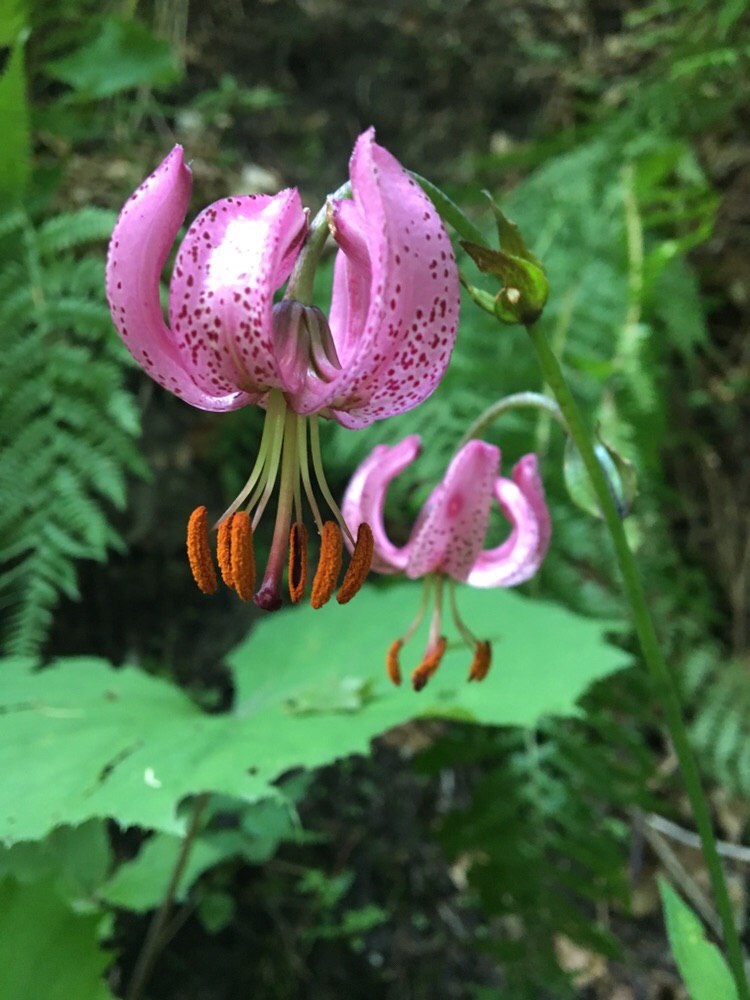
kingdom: Plantae
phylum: Tracheophyta
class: Liliopsida
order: Liliales
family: Liliaceae
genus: Lilium
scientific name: Lilium martagon
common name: Martagon lily
